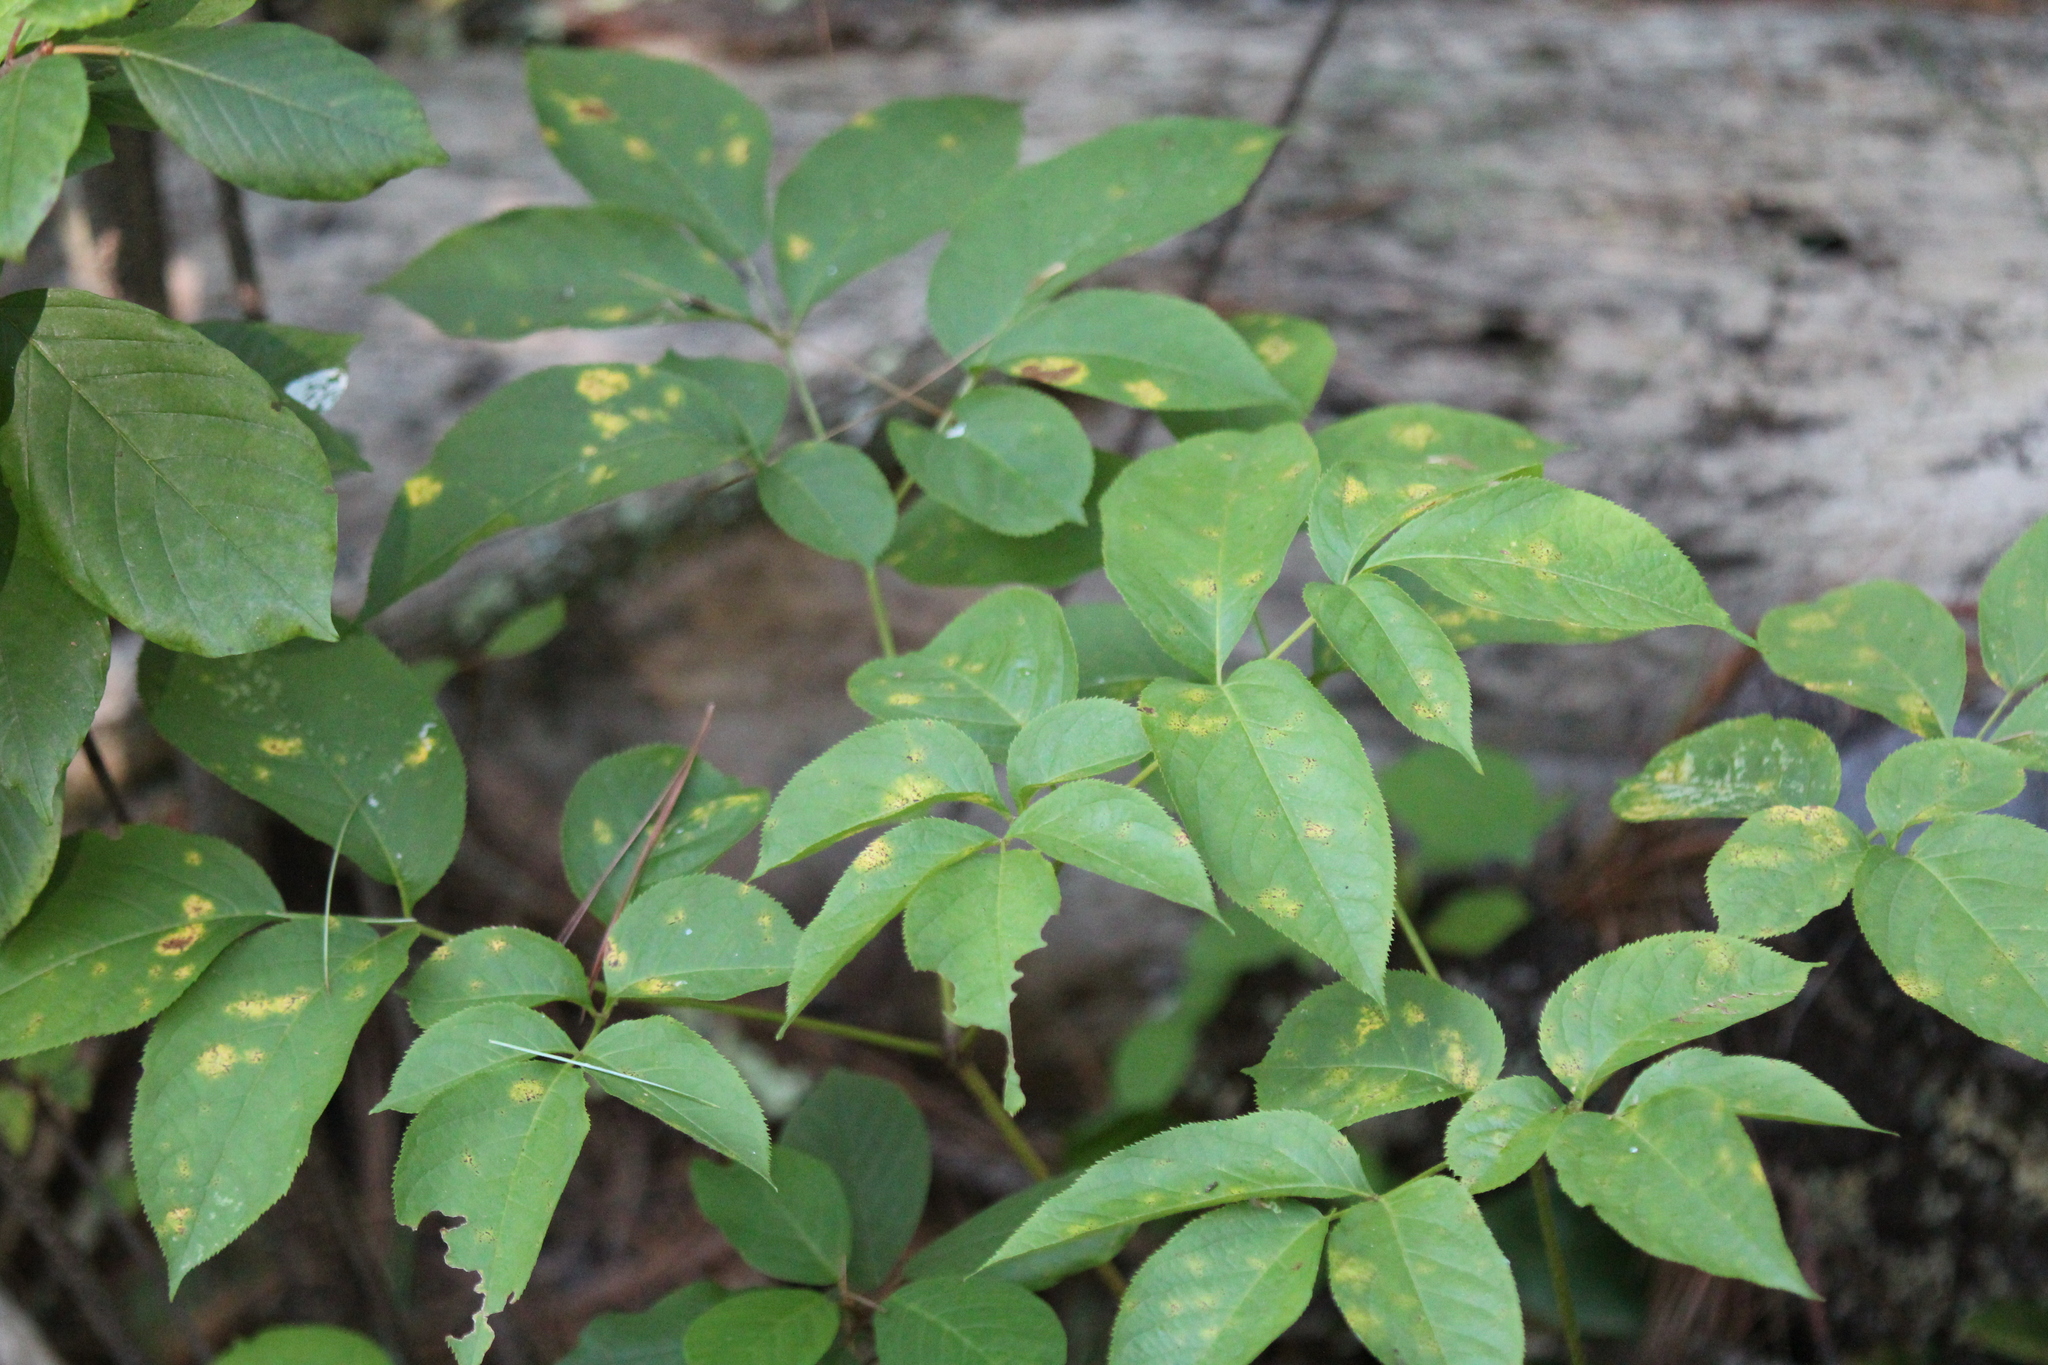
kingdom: Plantae
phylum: Tracheophyta
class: Magnoliopsida
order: Apiales
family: Araliaceae
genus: Aralia
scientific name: Aralia nudicaulis
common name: Wild sarsaparilla
